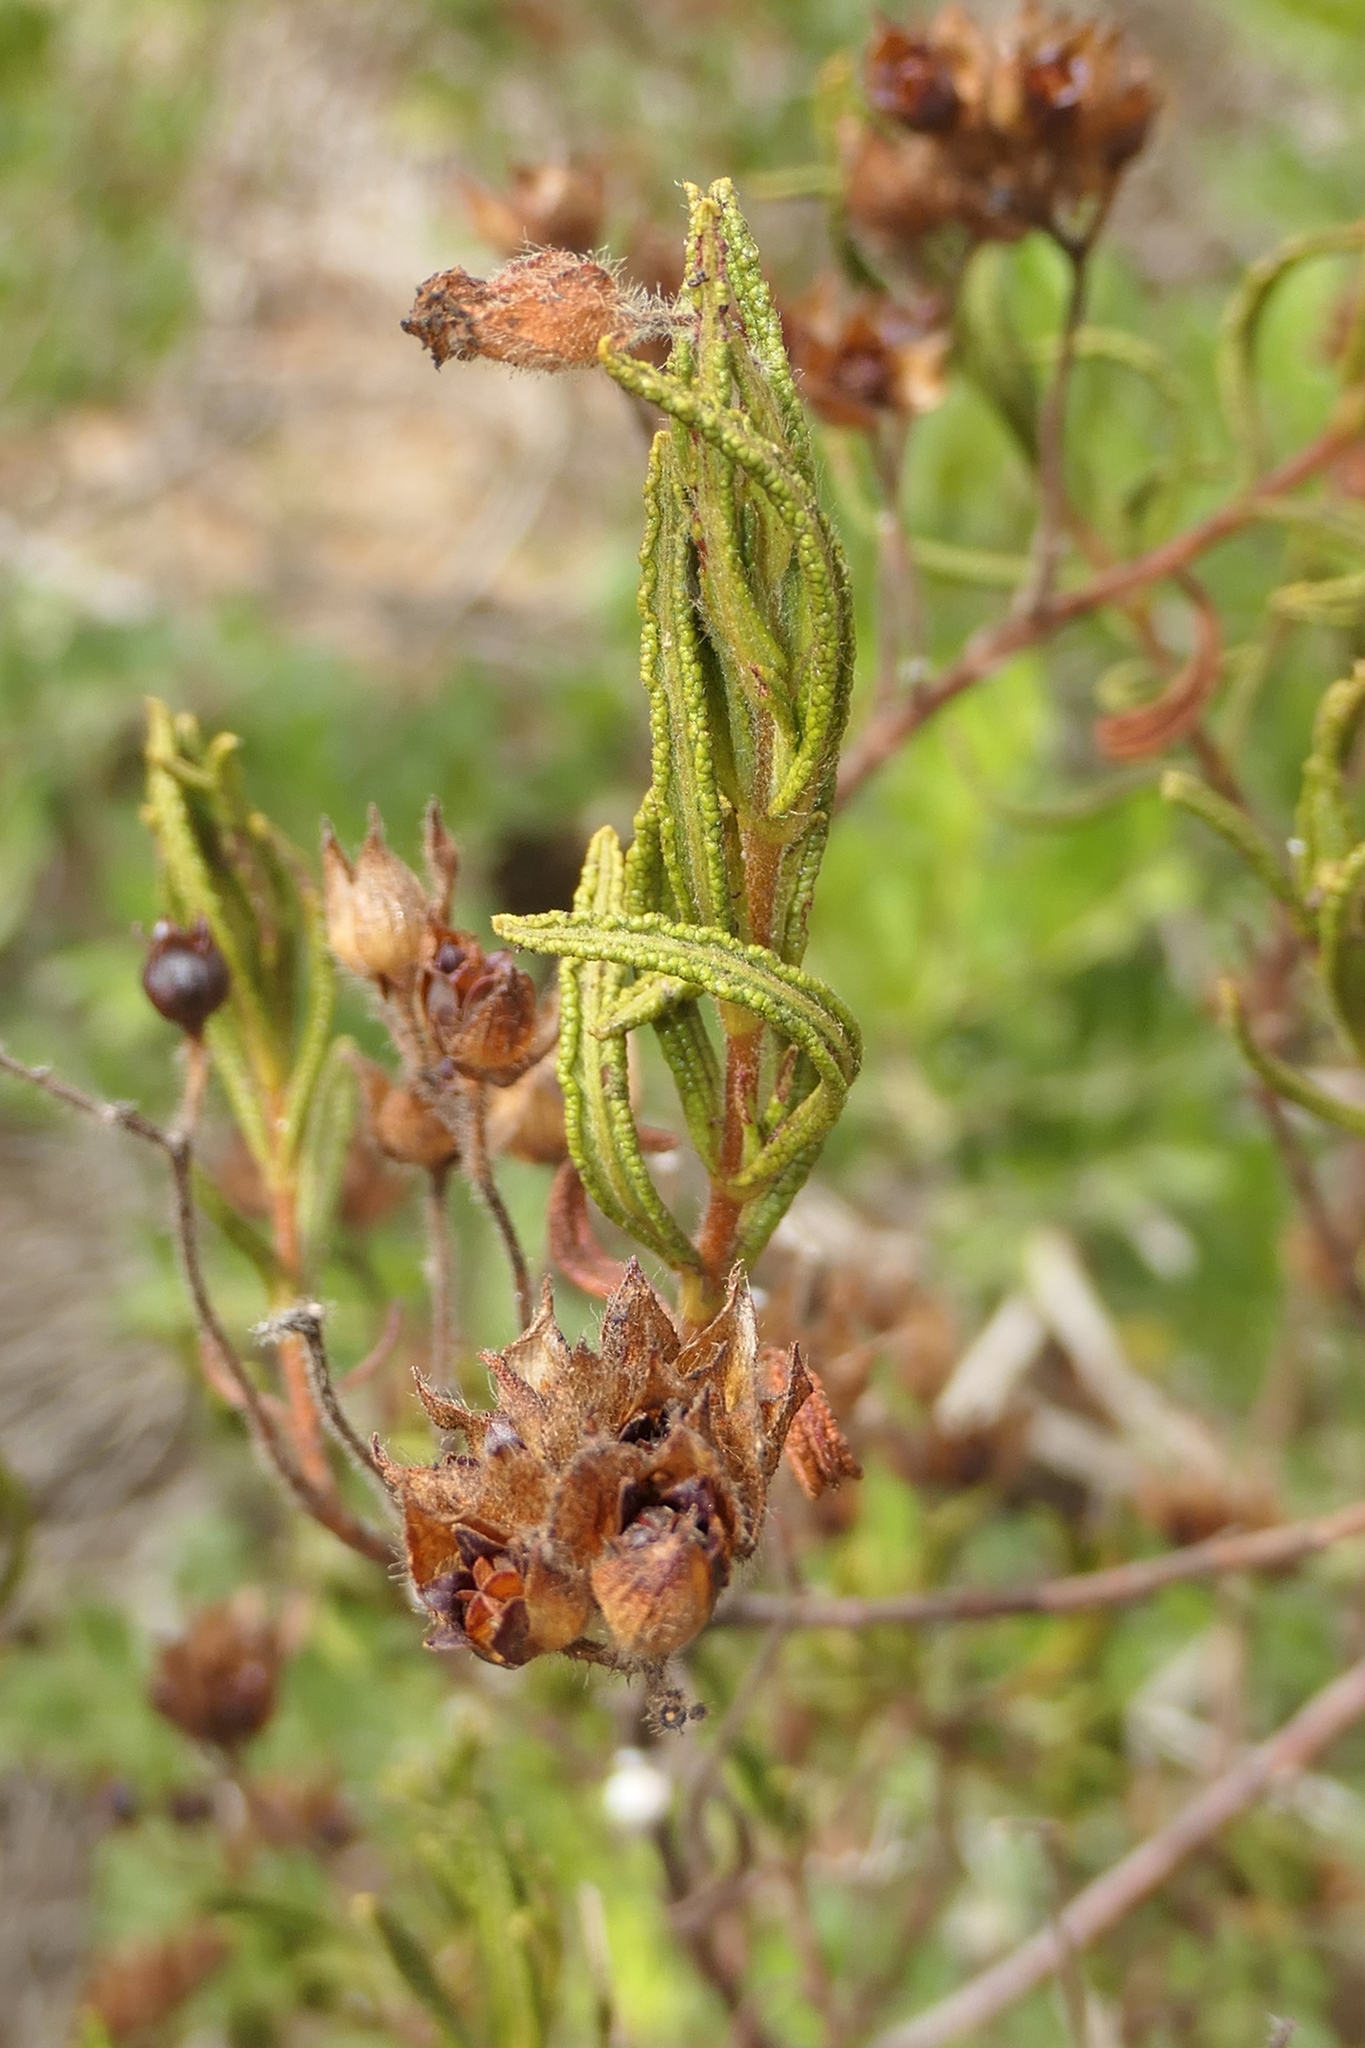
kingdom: Plantae
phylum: Tracheophyta
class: Magnoliopsida
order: Malvales
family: Cistaceae
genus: Cistus
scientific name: Cistus monspeliensis
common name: Montpelier cistus
